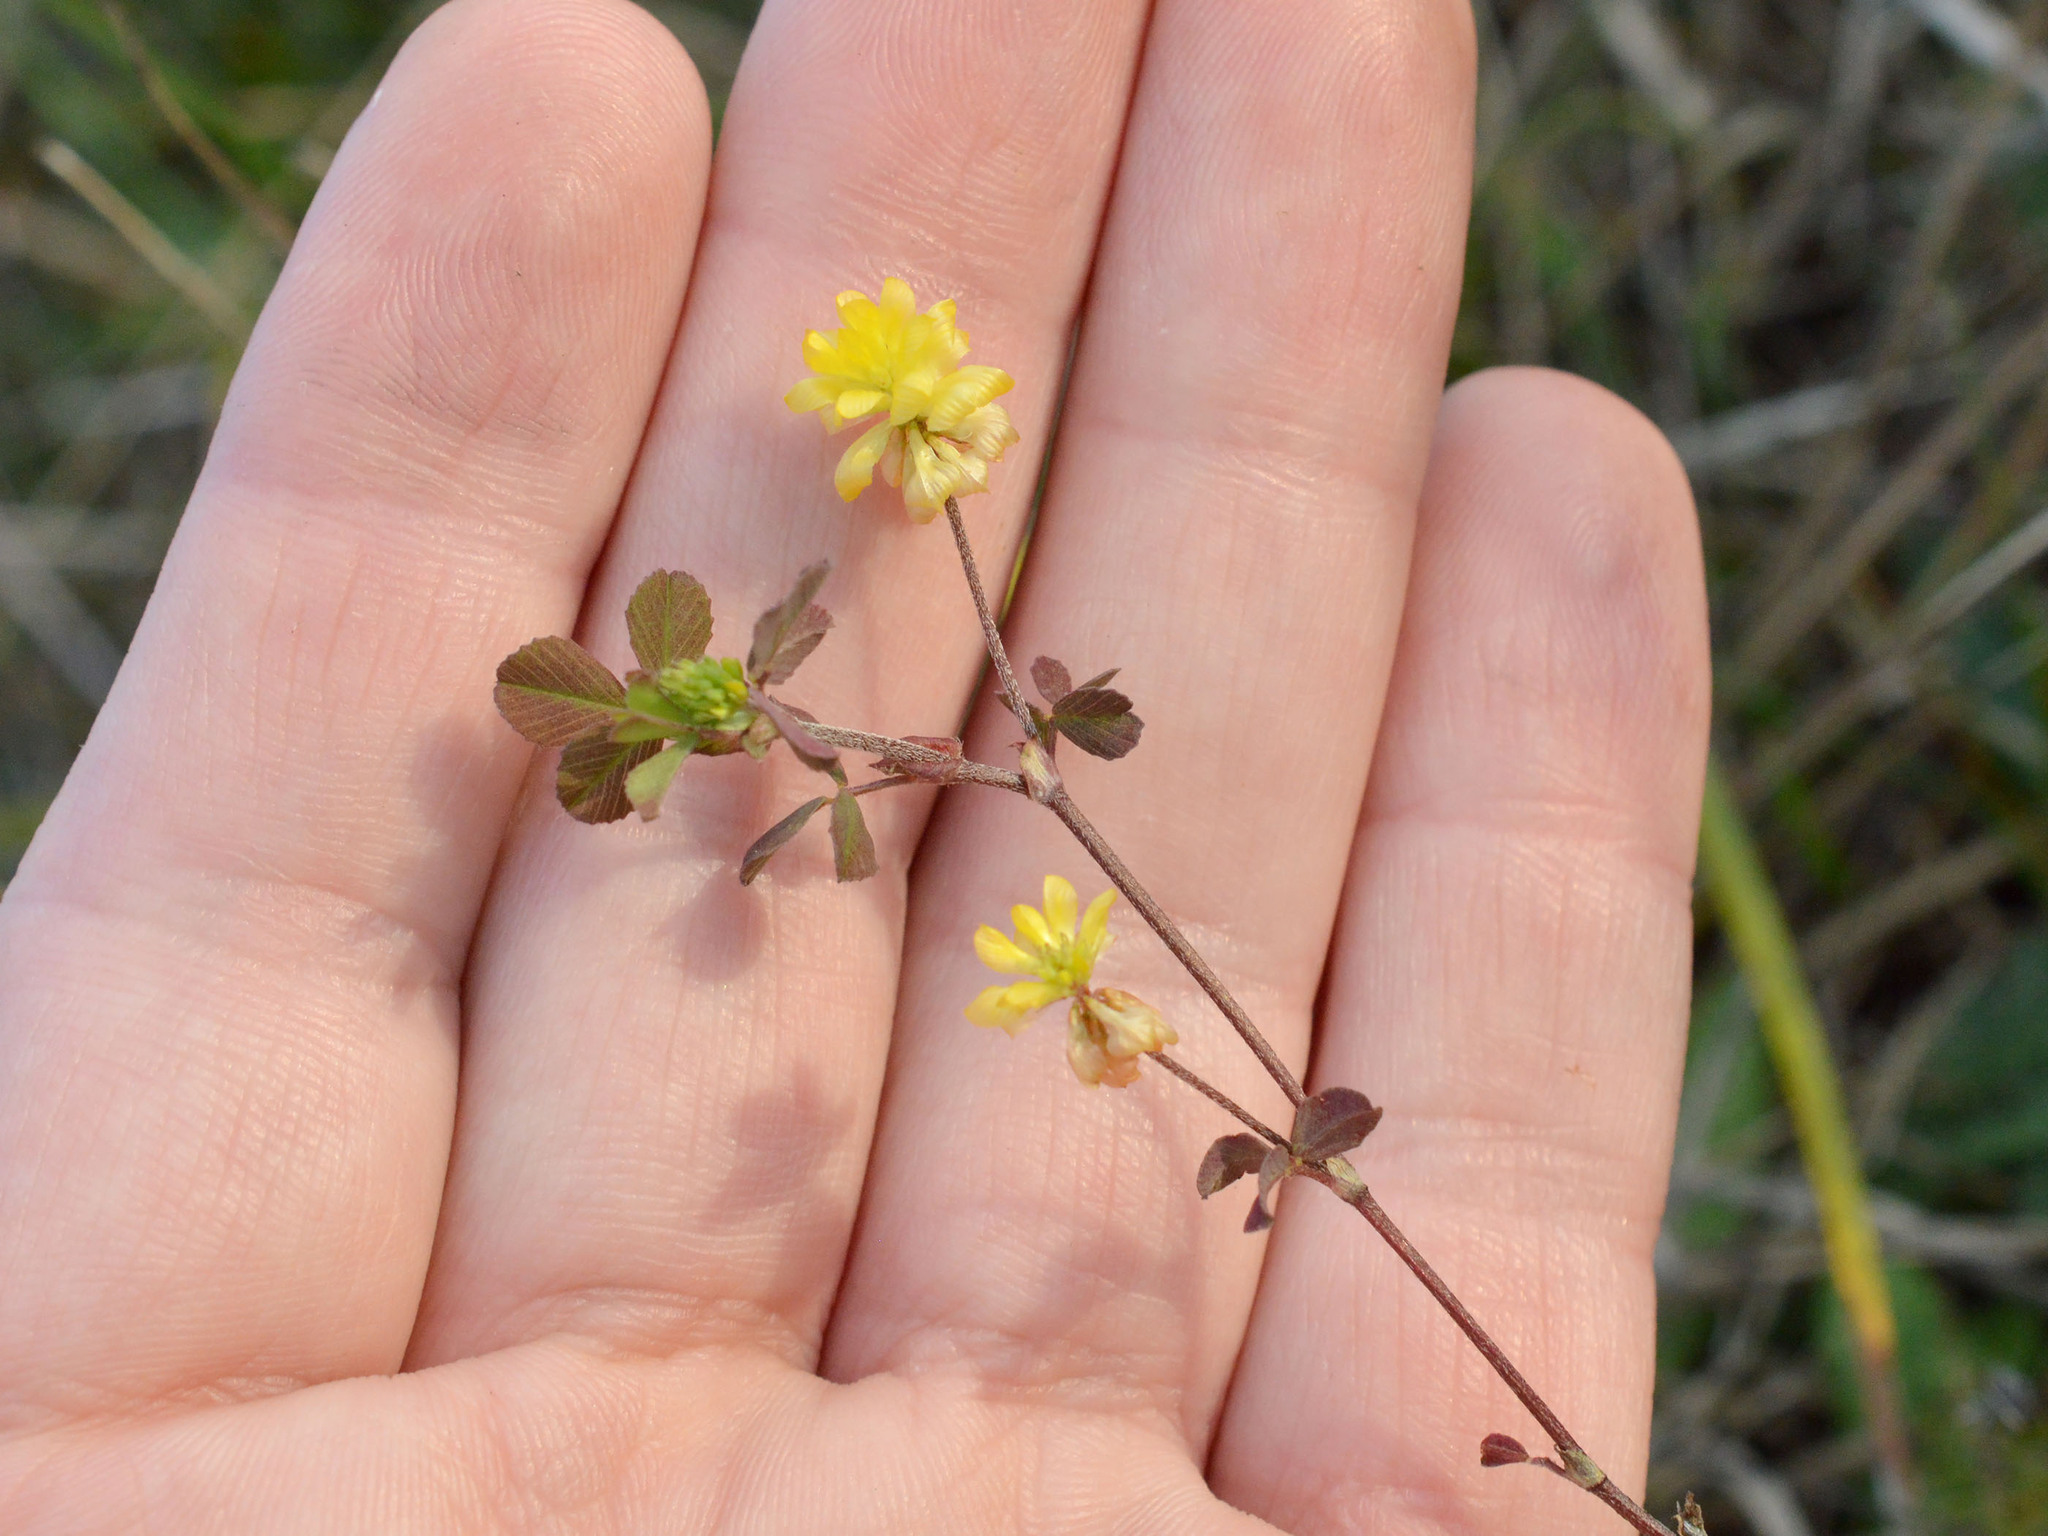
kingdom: Plantae
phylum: Tracheophyta
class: Magnoliopsida
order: Fabales
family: Fabaceae
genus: Trifolium
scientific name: Trifolium campestre
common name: Field clover
